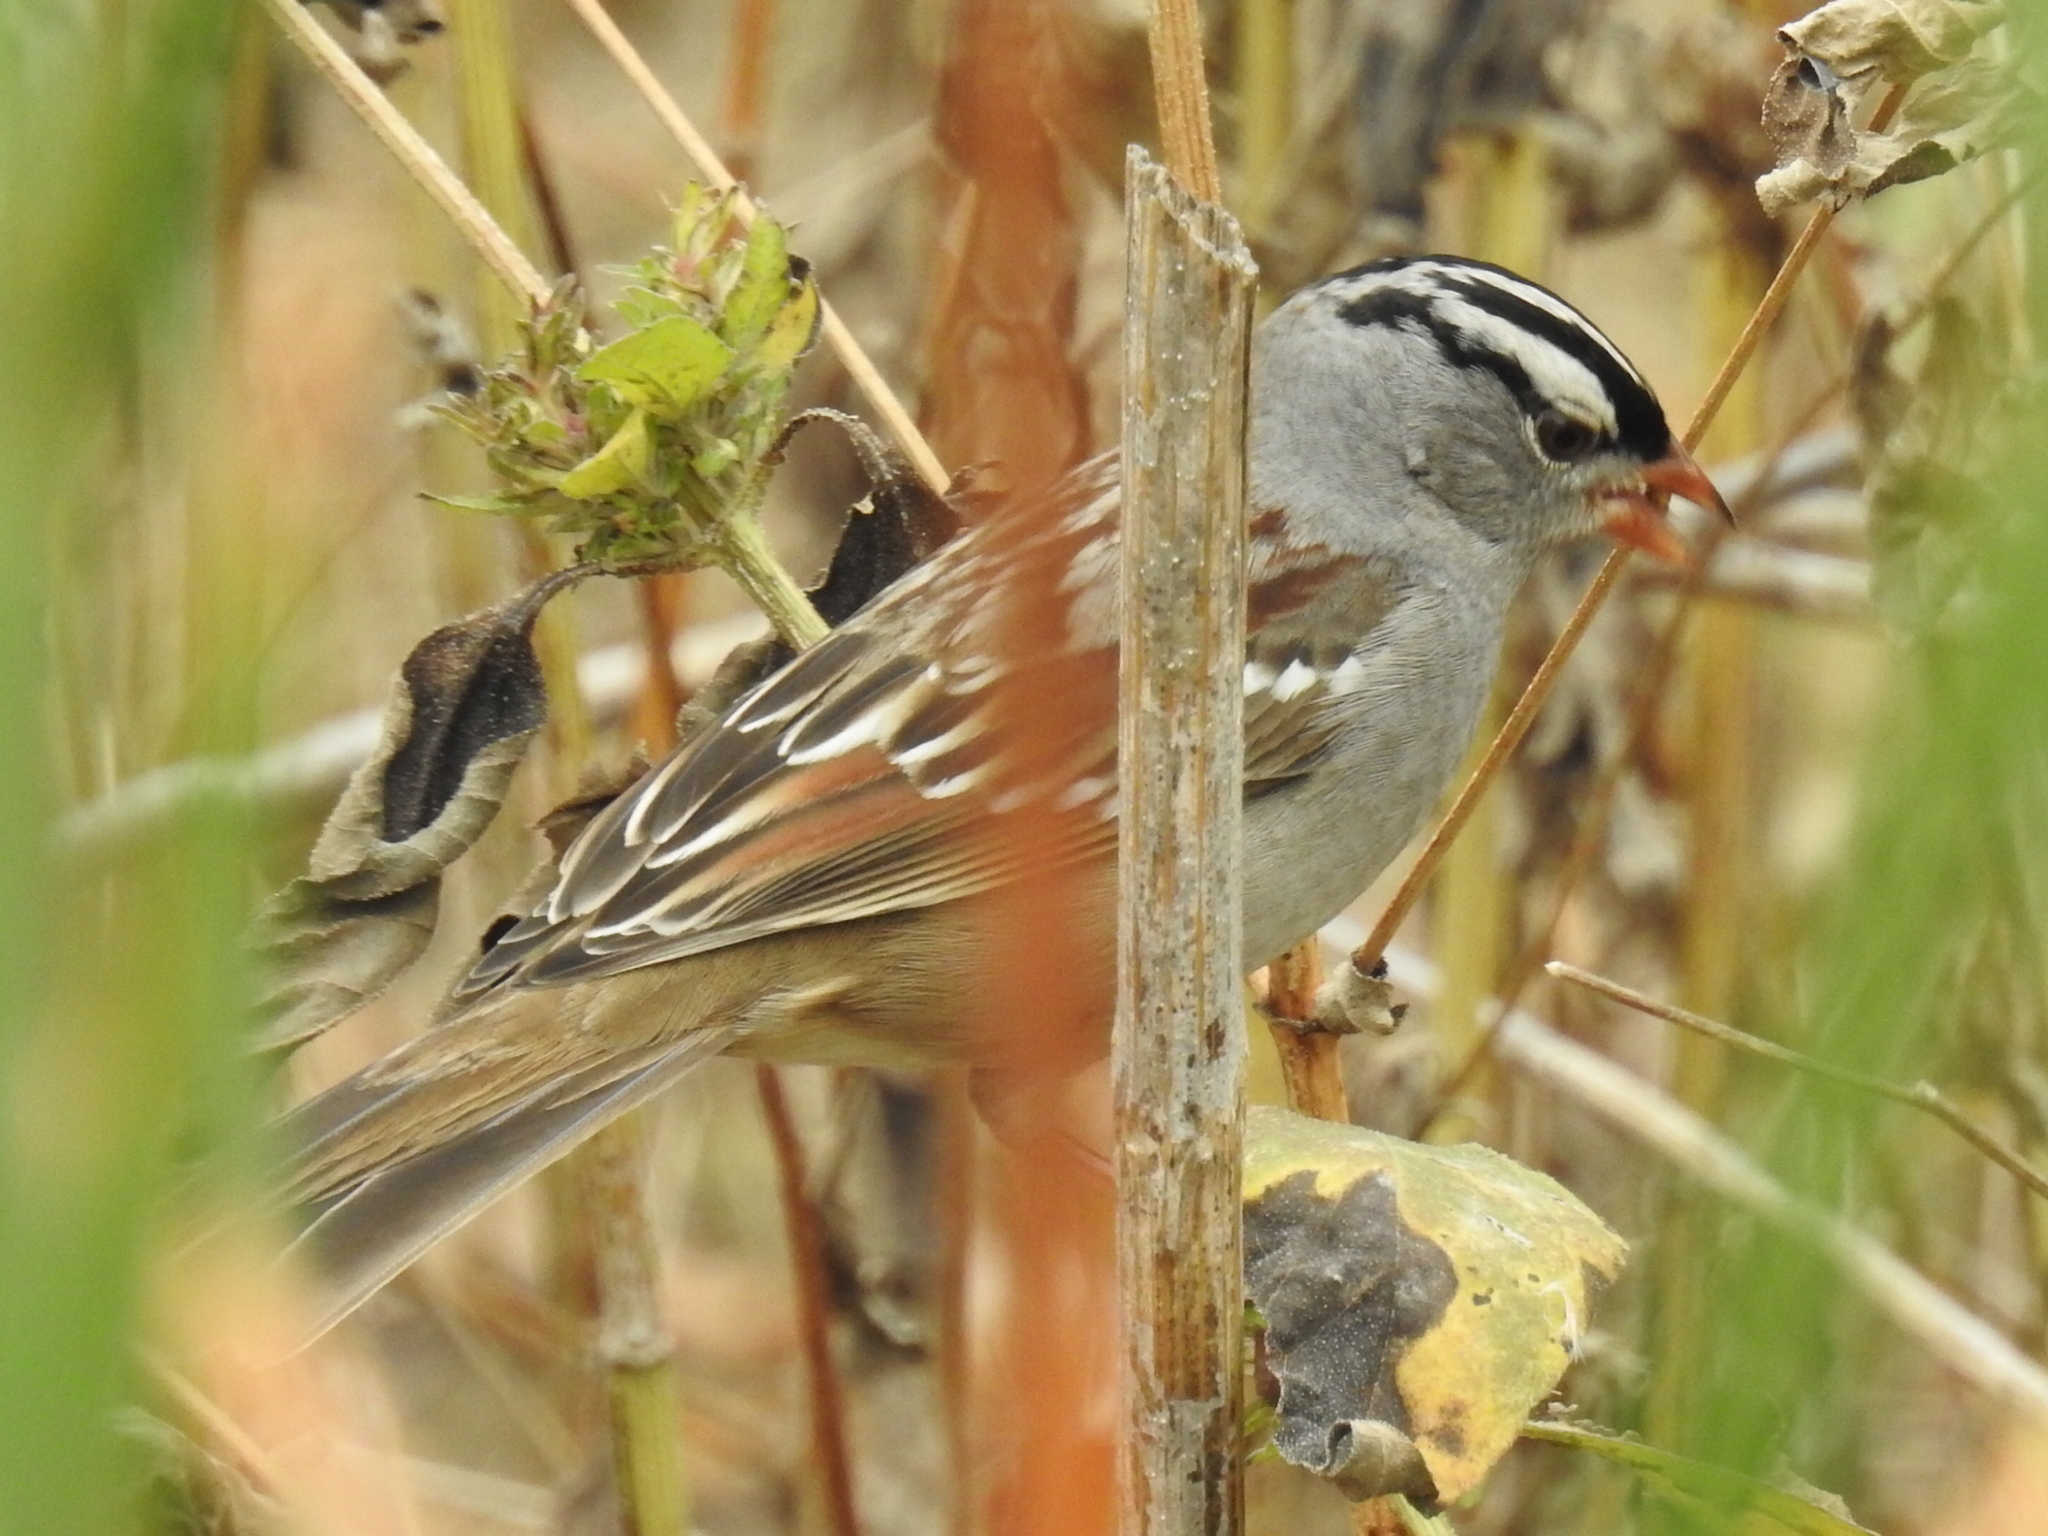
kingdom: Animalia
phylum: Chordata
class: Aves
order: Passeriformes
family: Passerellidae
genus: Zonotrichia
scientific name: Zonotrichia leucophrys
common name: White-crowned sparrow
